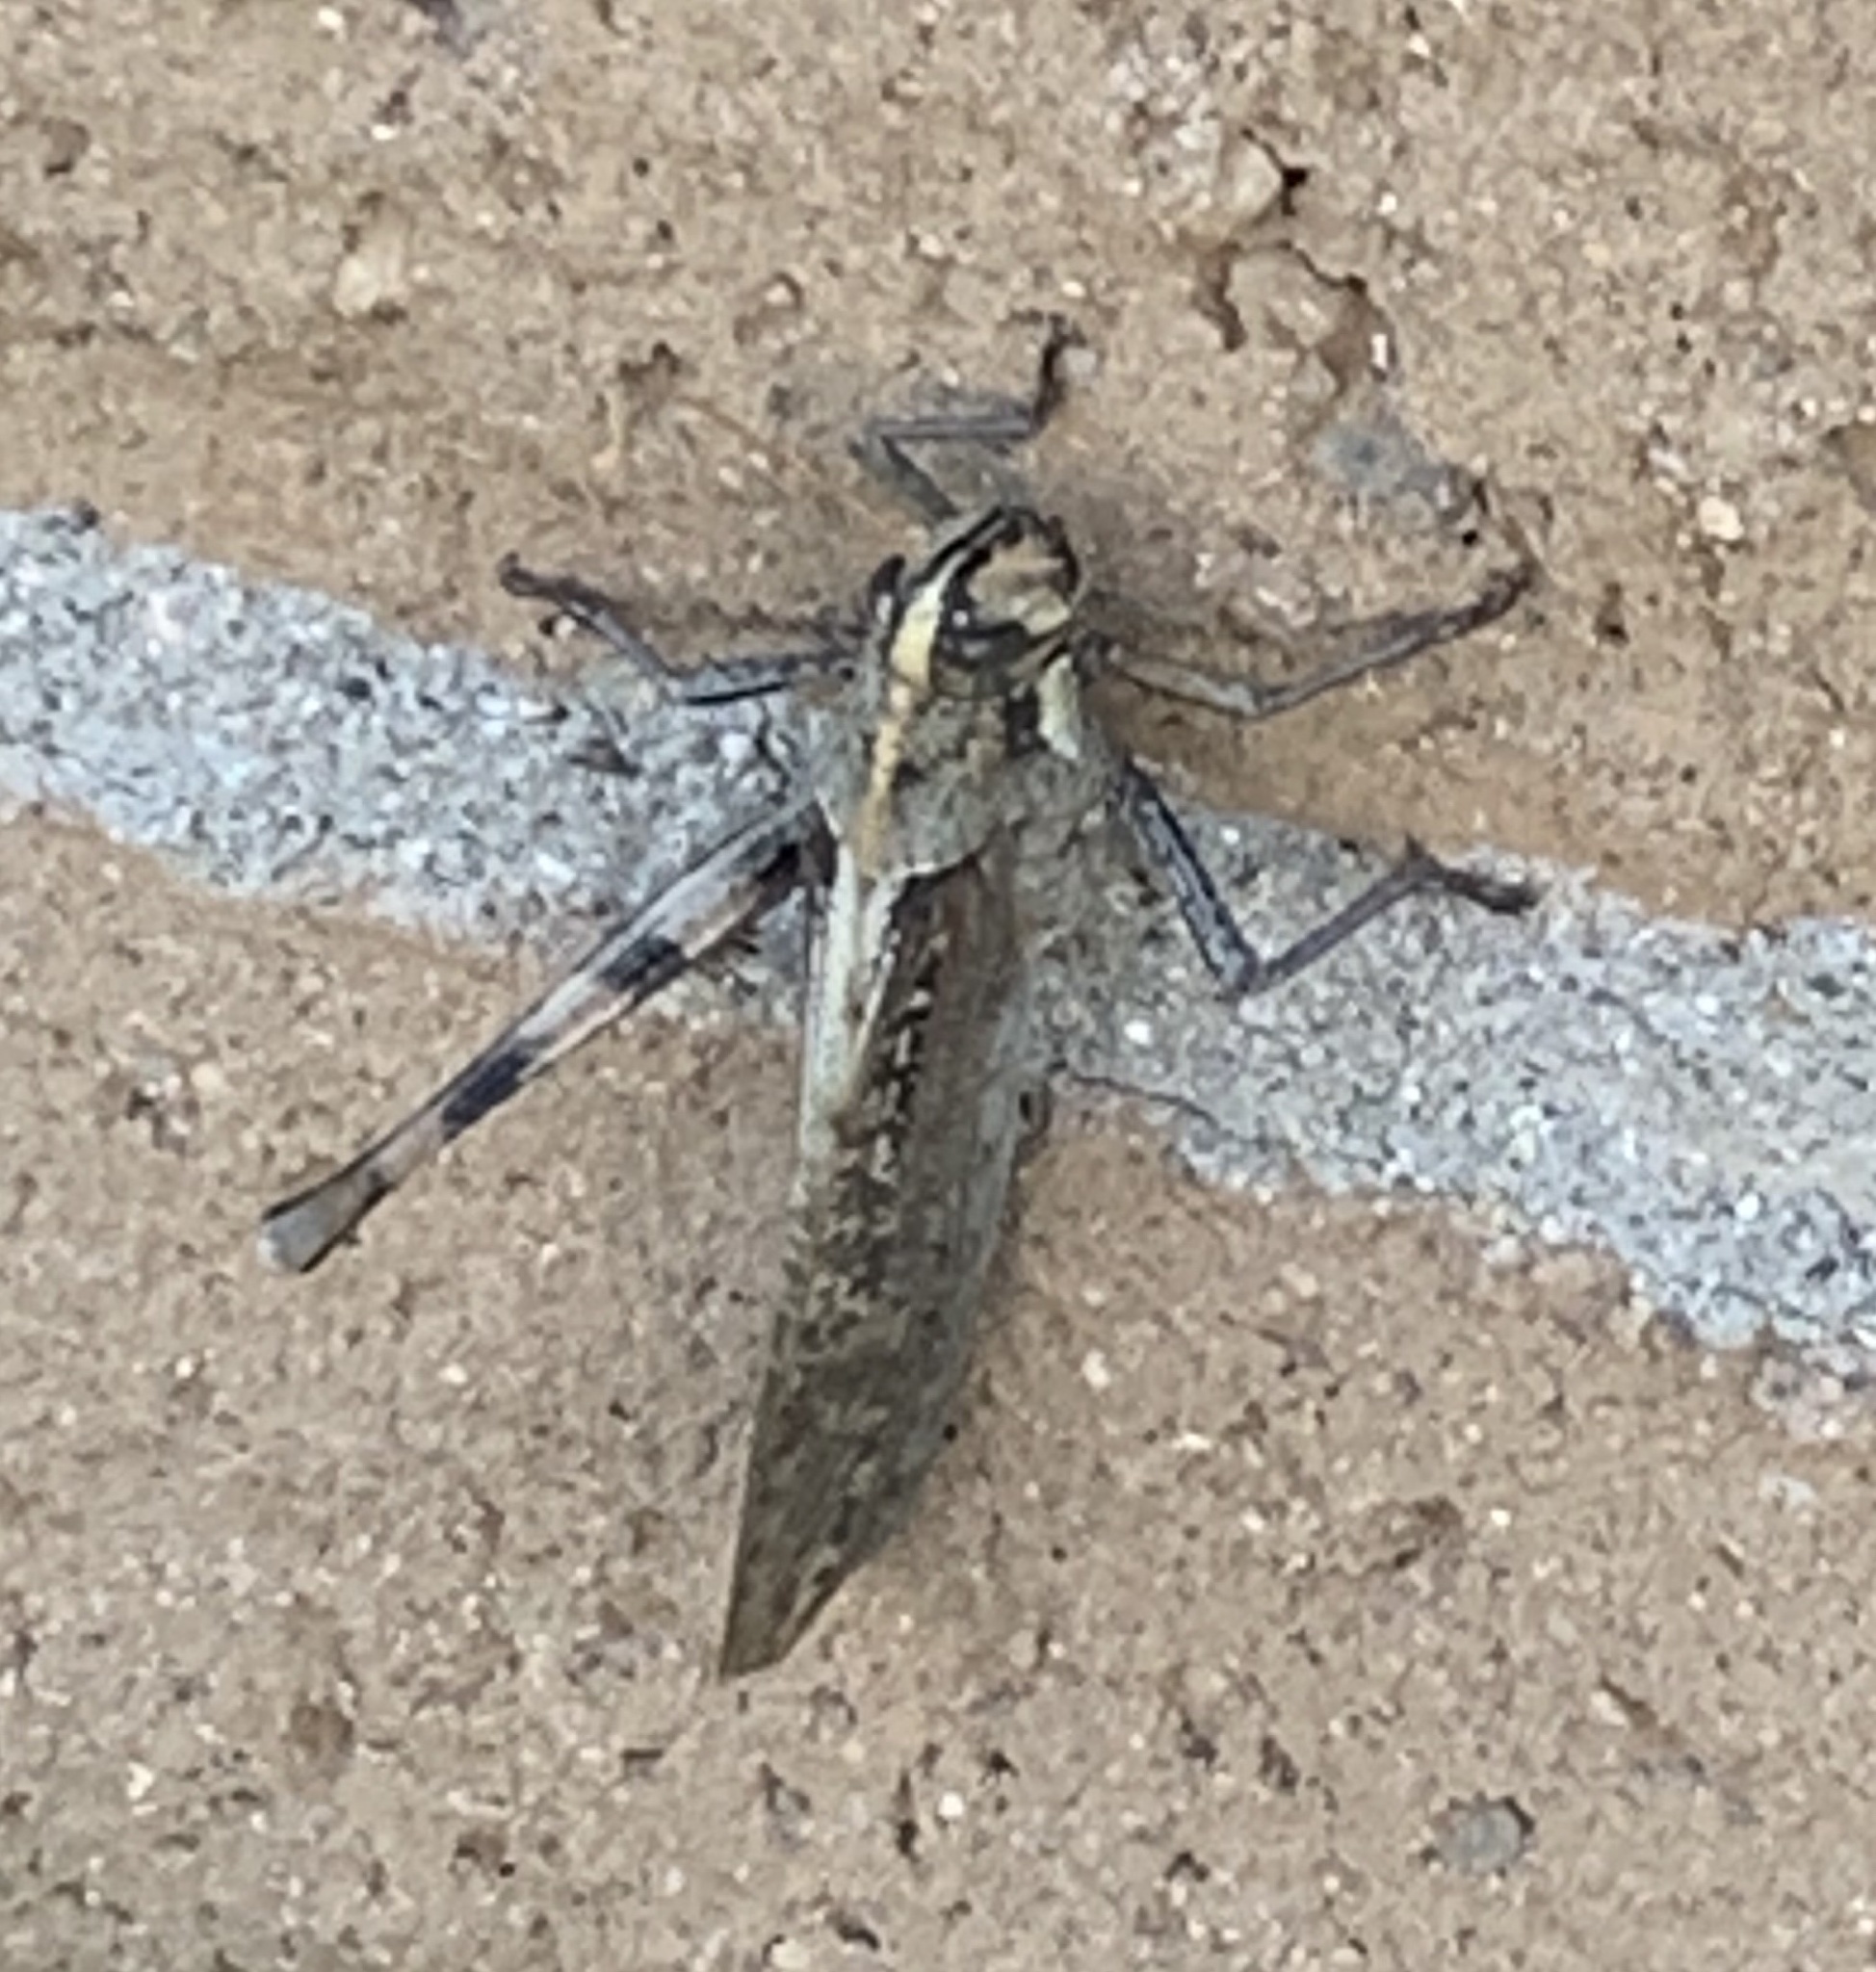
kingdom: Animalia
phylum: Arthropoda
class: Insecta
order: Orthoptera
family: Acrididae
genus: Schistocerca
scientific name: Schistocerca nitens
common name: Vagrant grasshopper
